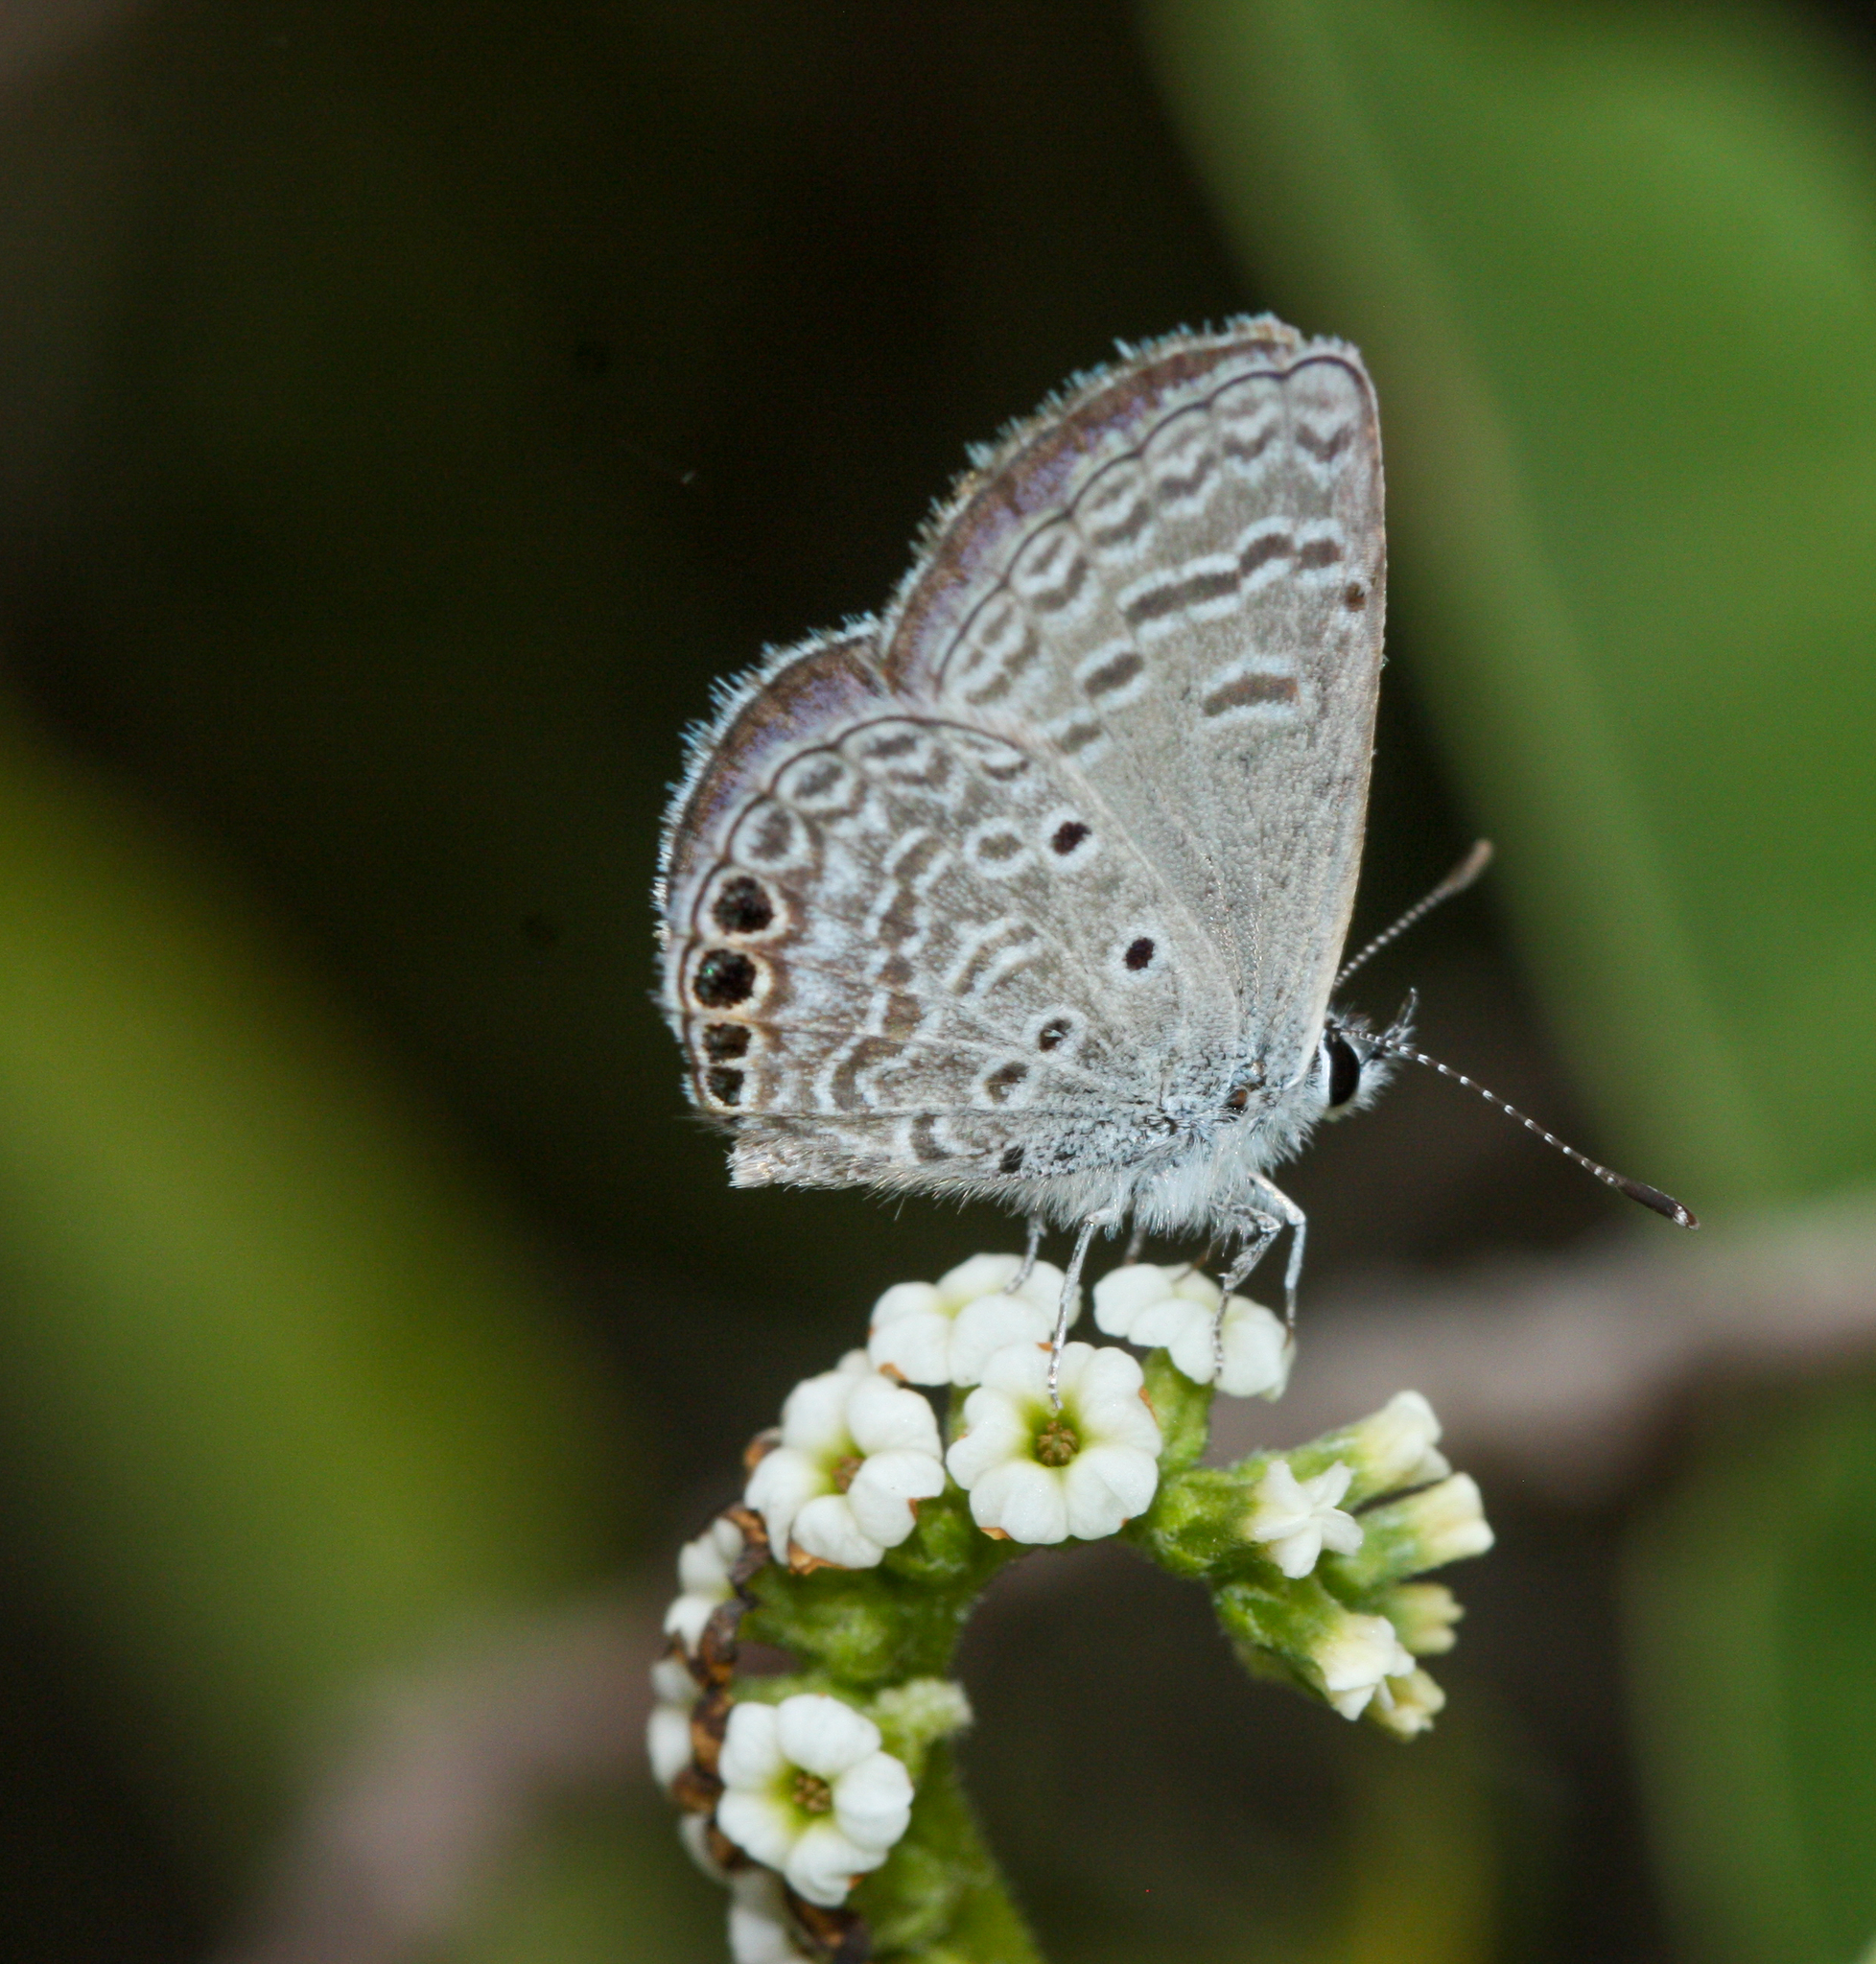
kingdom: Animalia
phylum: Arthropoda
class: Insecta
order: Lepidoptera
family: Lycaenidae
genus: Hemiargus
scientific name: Hemiargus ramon
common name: Ramon blue
